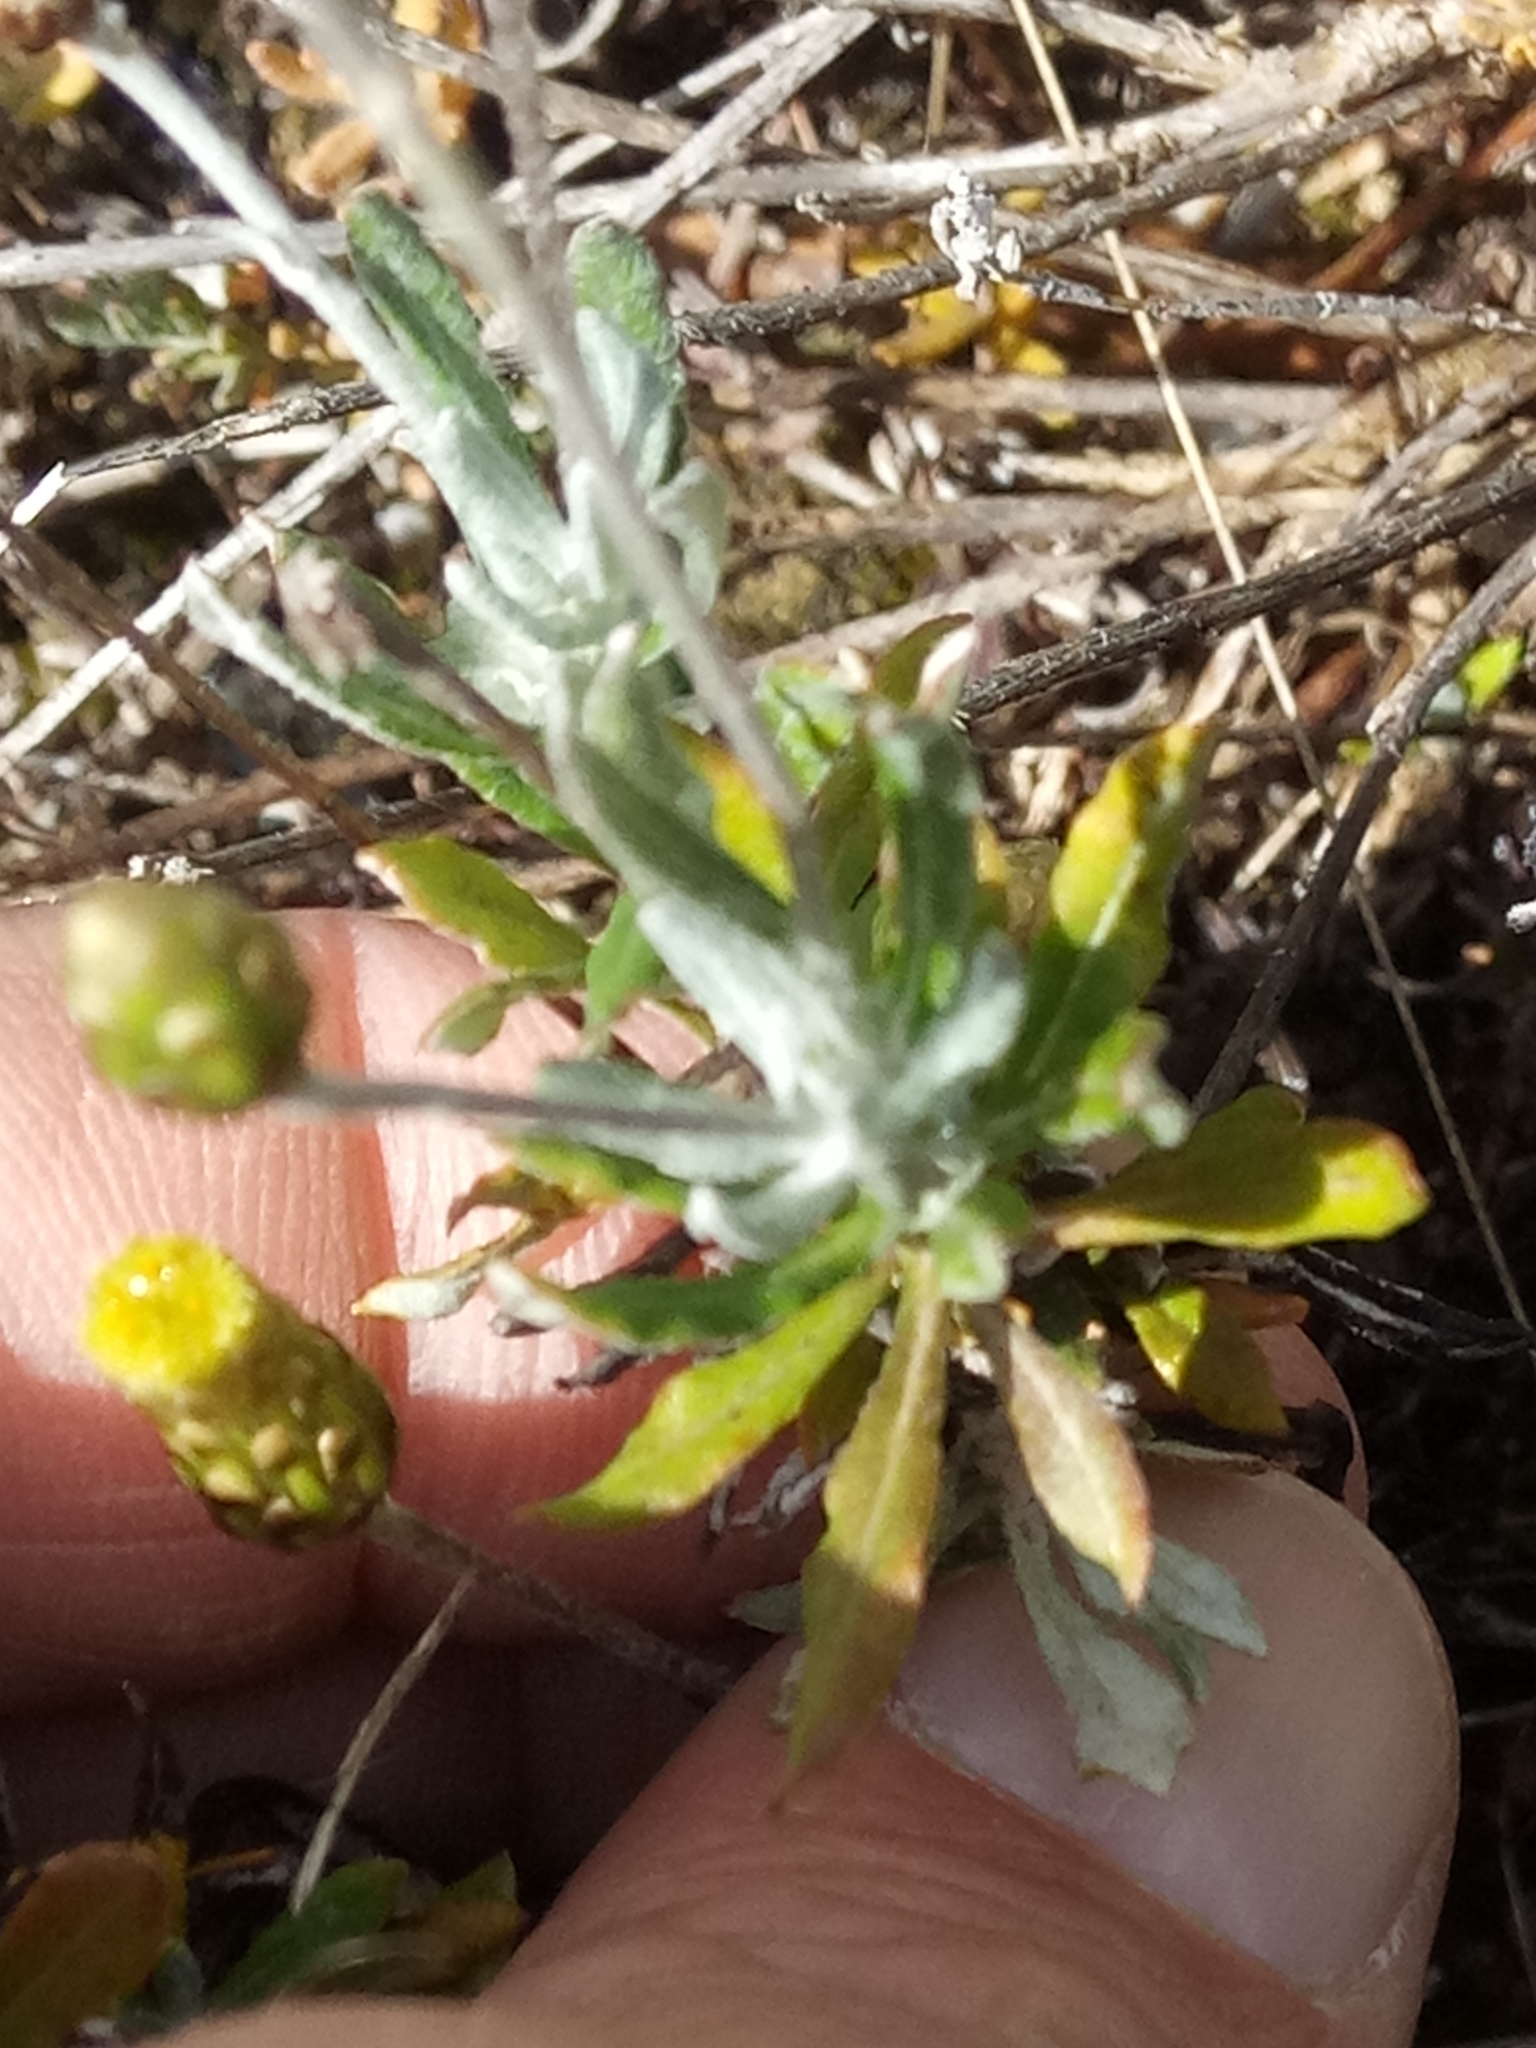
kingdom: Plantae
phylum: Tracheophyta
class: Magnoliopsida
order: Asterales
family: Asteraceae
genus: Phagnalon
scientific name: Phagnalon rupestre
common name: Rock phagnalon
